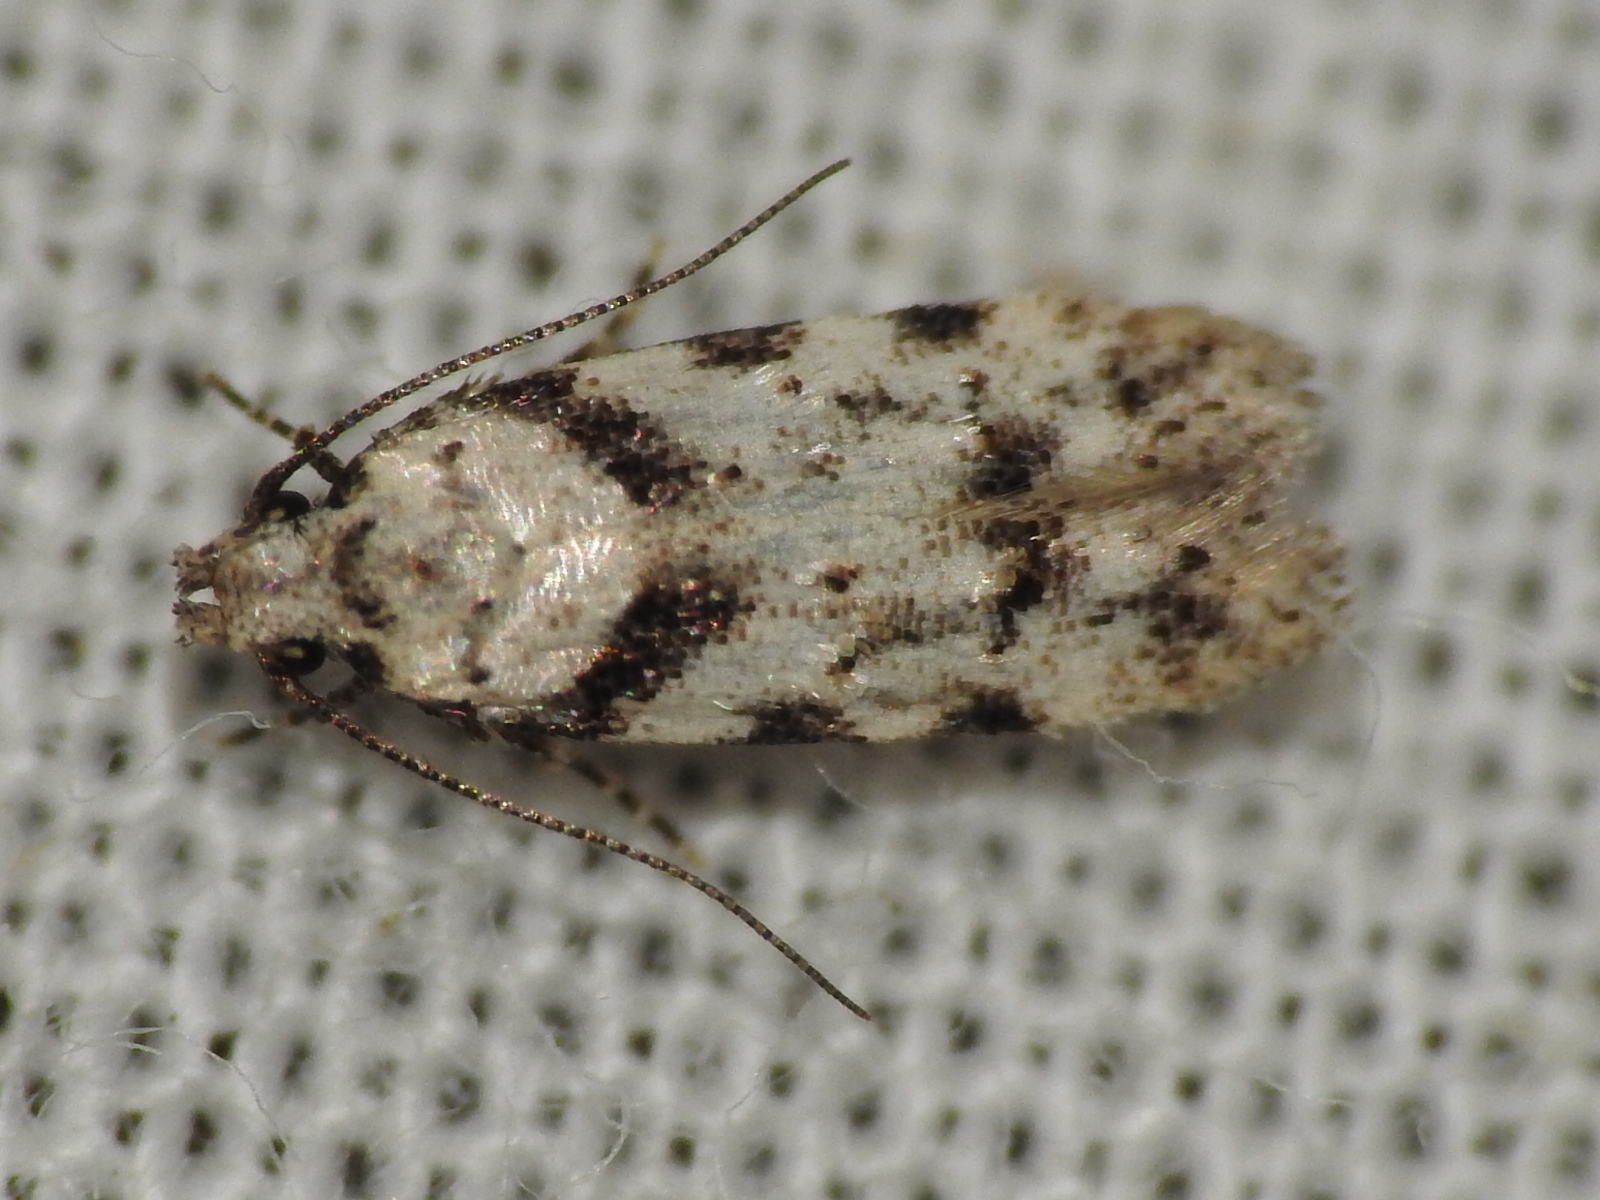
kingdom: Animalia
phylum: Arthropoda
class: Insecta
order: Lepidoptera
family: Gelechiidae
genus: Pseudotelphusa
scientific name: Pseudotelphusa palliderosacella
